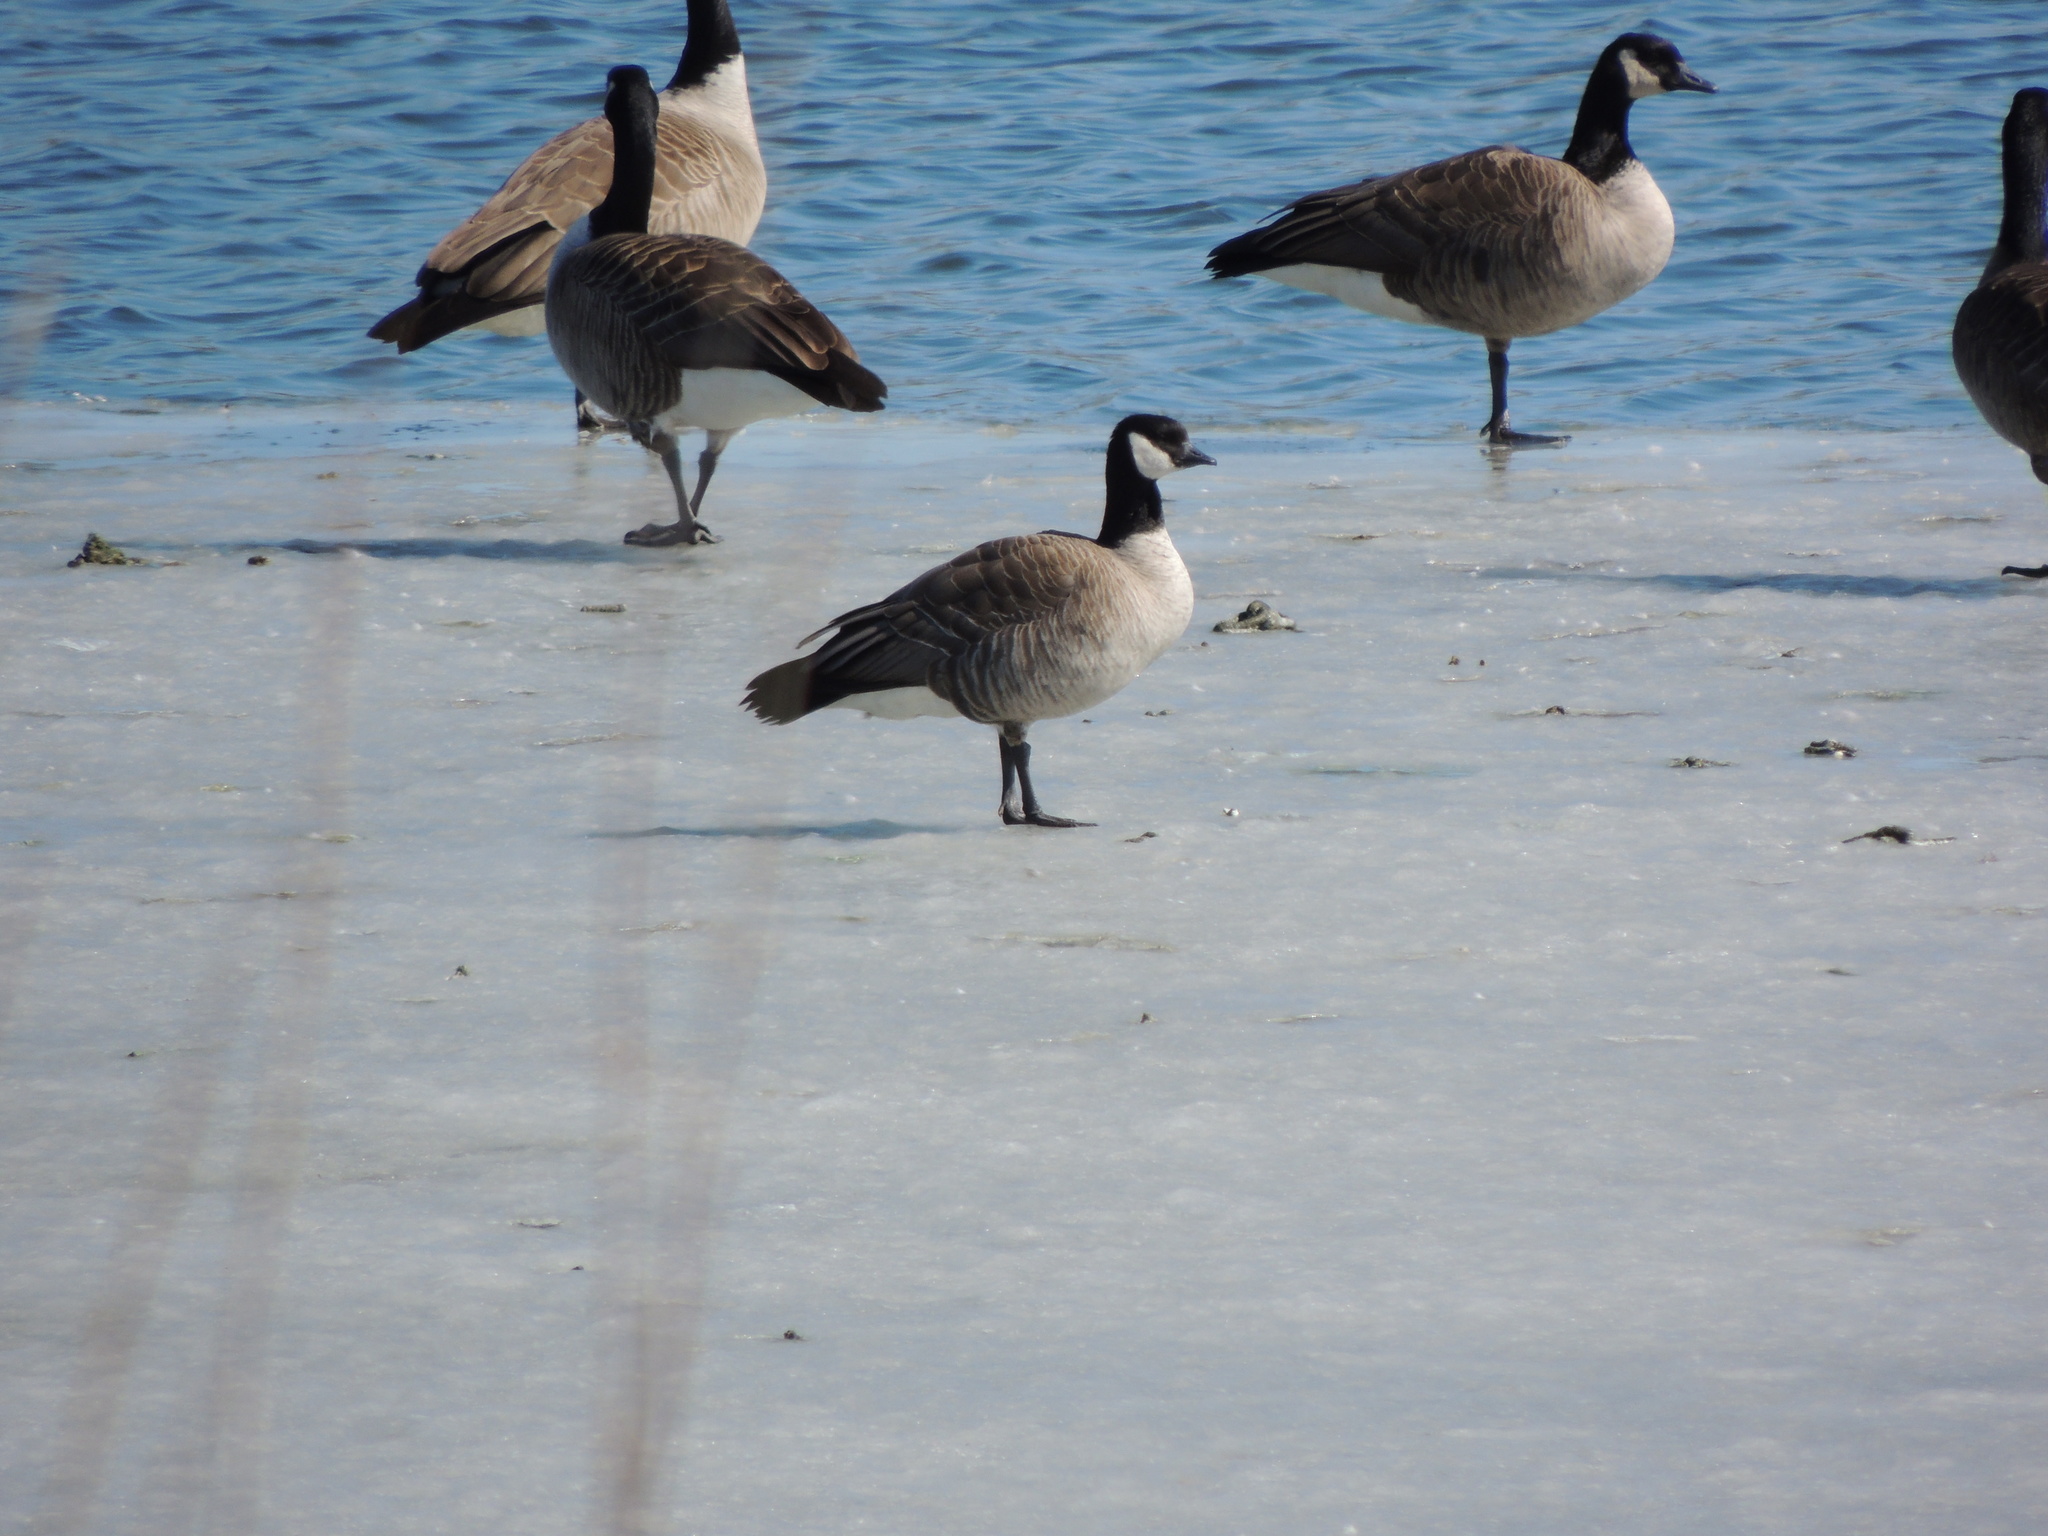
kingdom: Animalia
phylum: Chordata
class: Aves
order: Anseriformes
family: Anatidae
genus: Branta
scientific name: Branta hutchinsii
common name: Cackling goose
